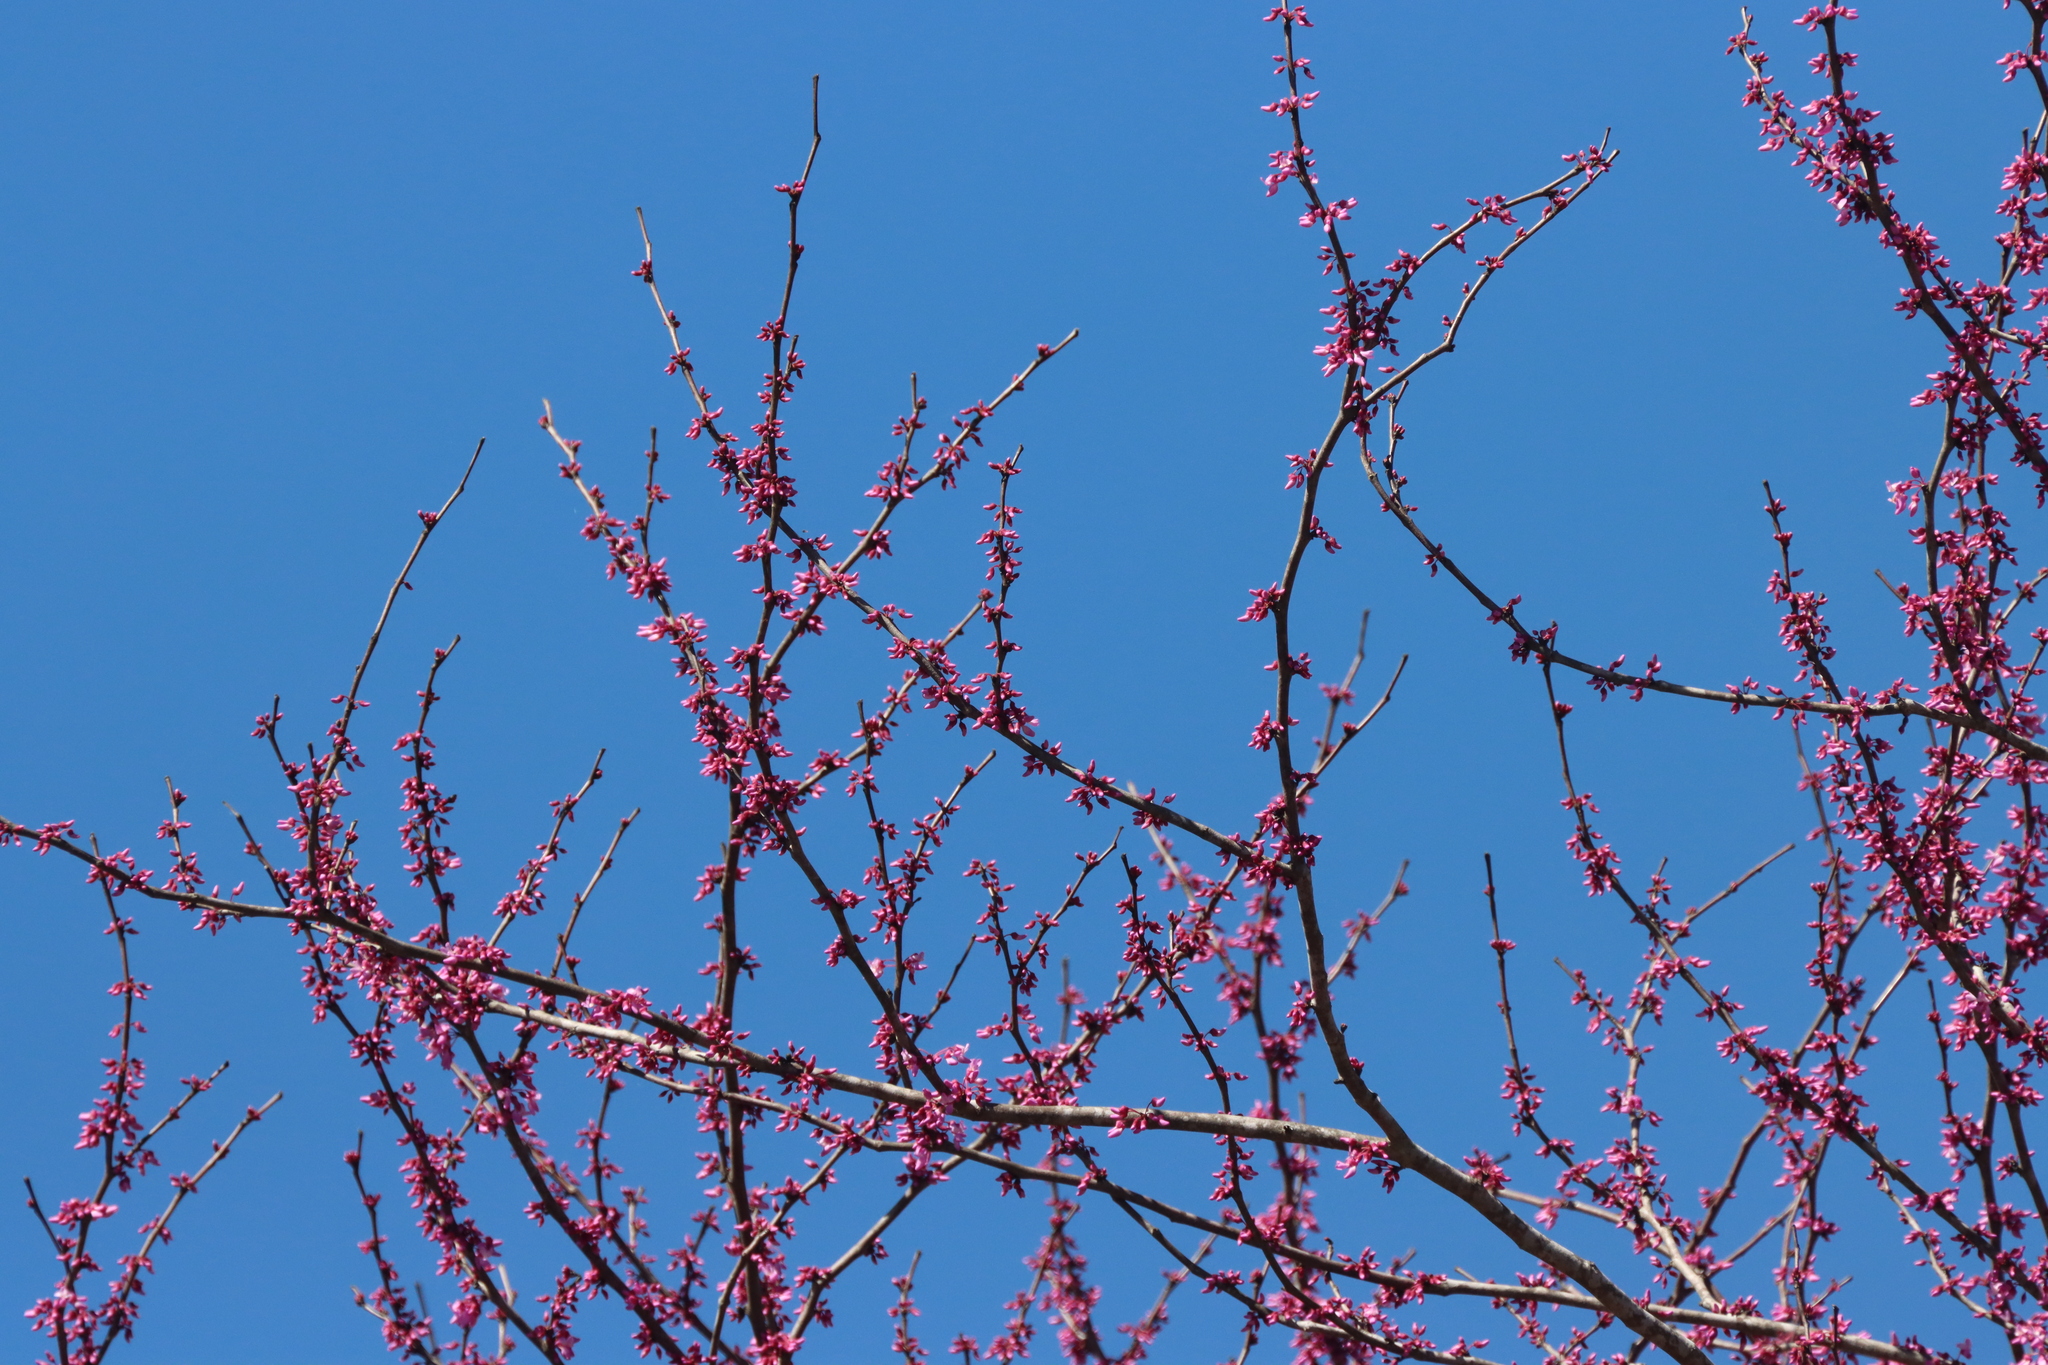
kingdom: Plantae
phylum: Tracheophyta
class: Magnoliopsida
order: Fabales
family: Fabaceae
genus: Cercis
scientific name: Cercis canadensis
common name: Eastern redbud
